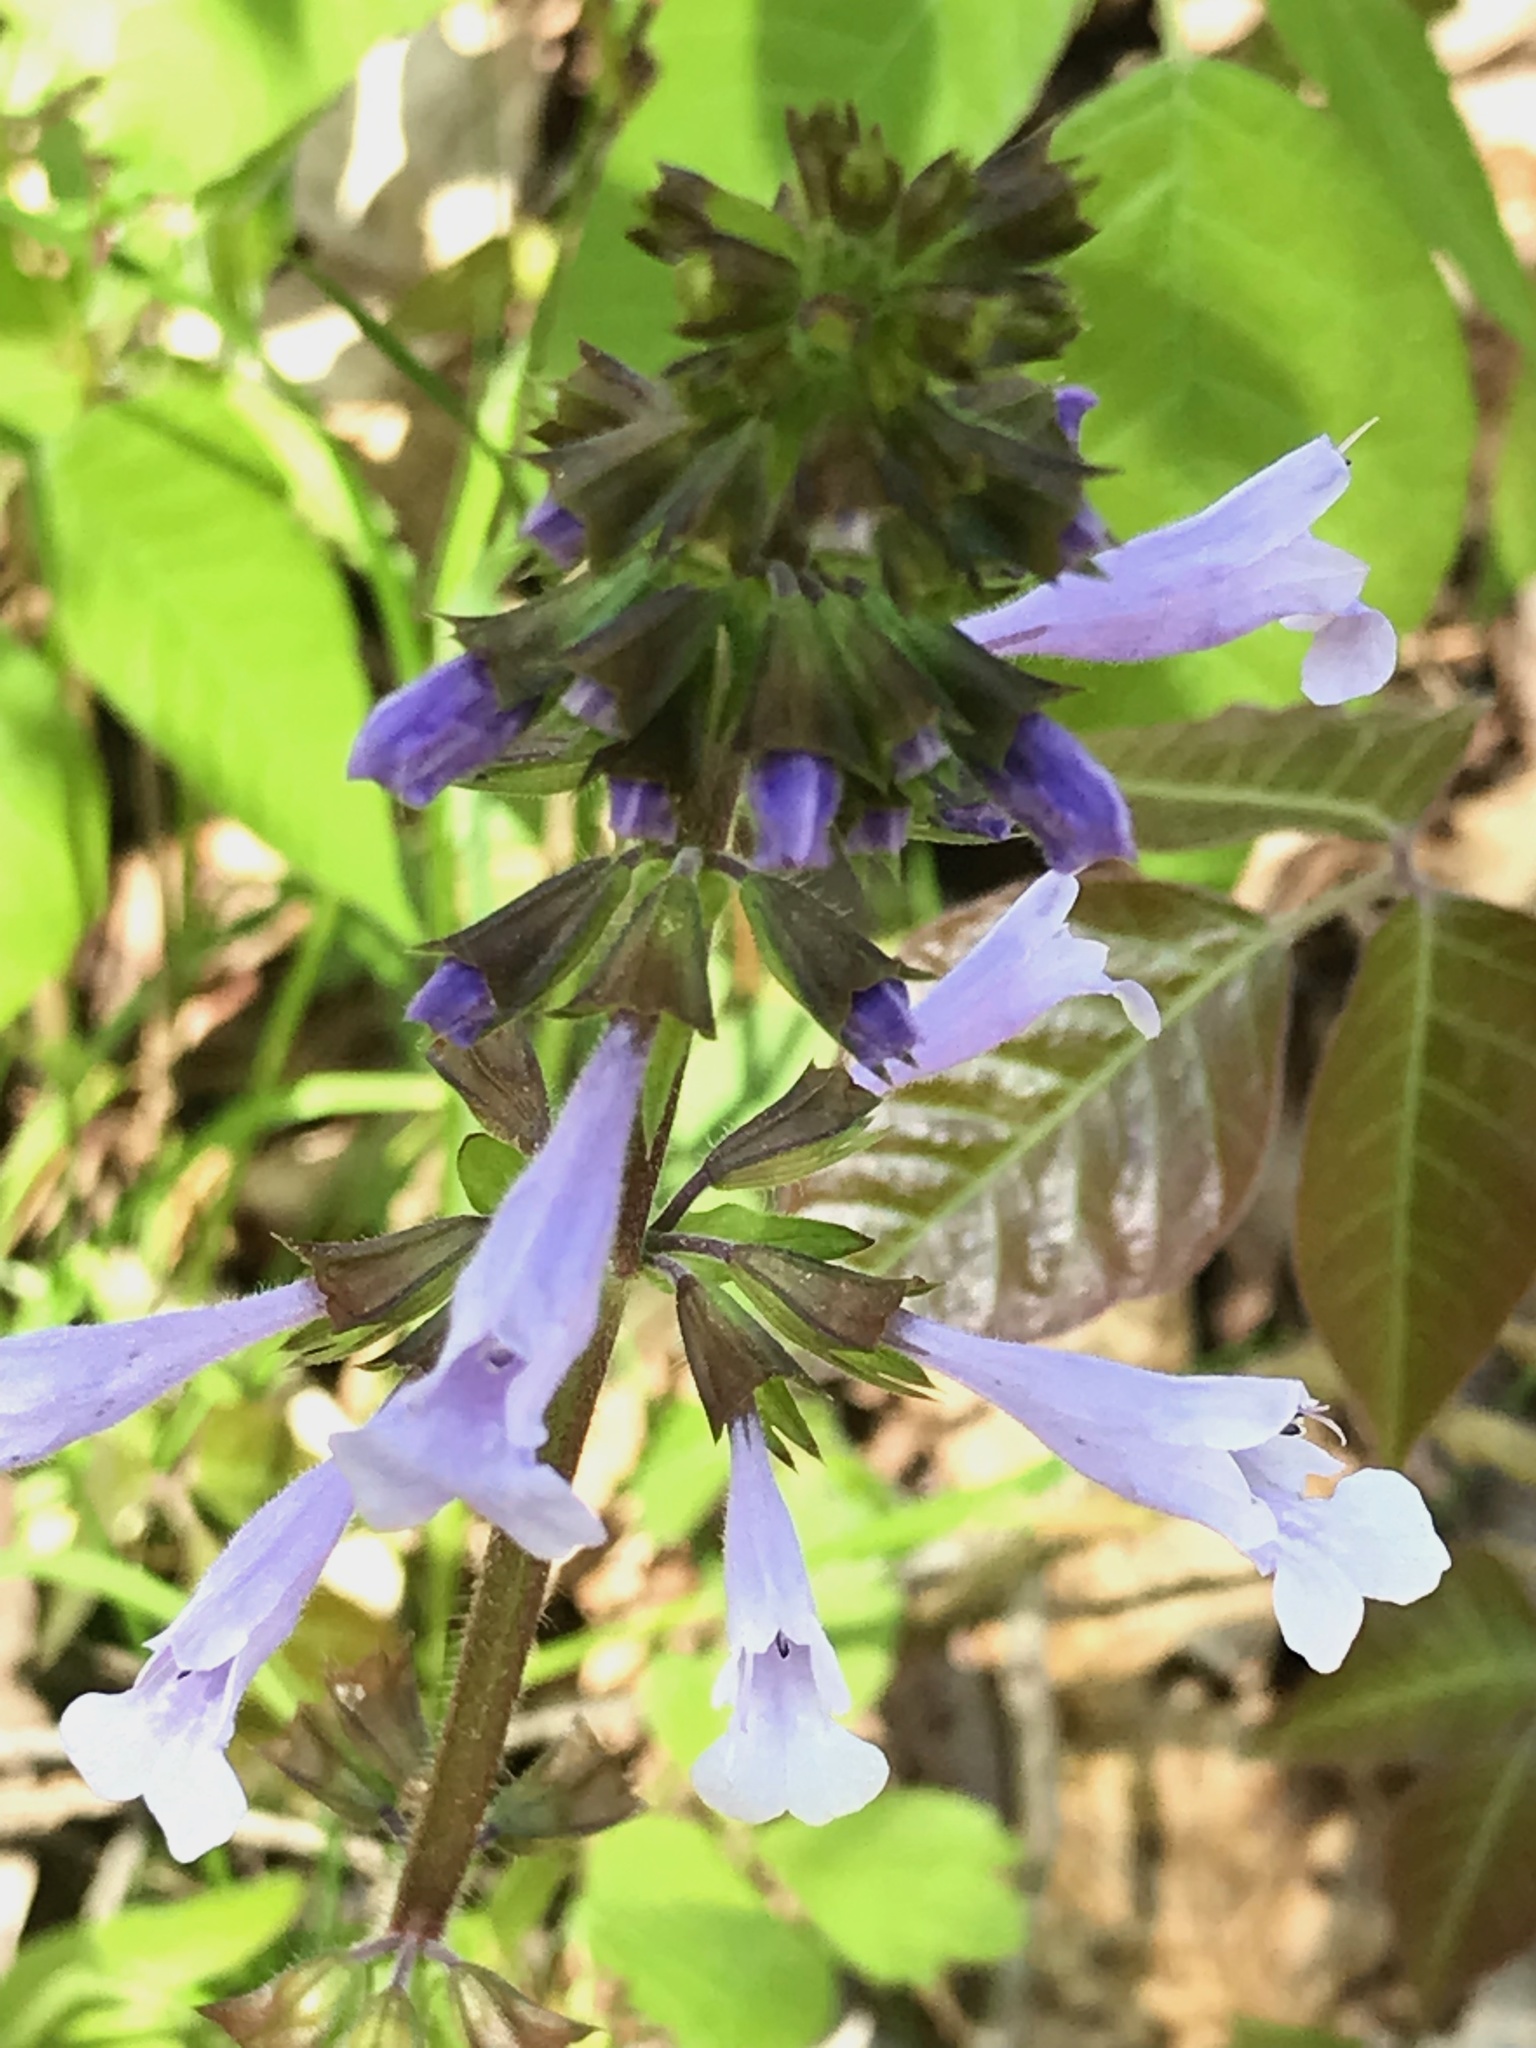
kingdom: Plantae
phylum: Tracheophyta
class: Magnoliopsida
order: Lamiales
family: Lamiaceae
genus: Salvia
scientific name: Salvia lyrata
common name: Cancerweed
